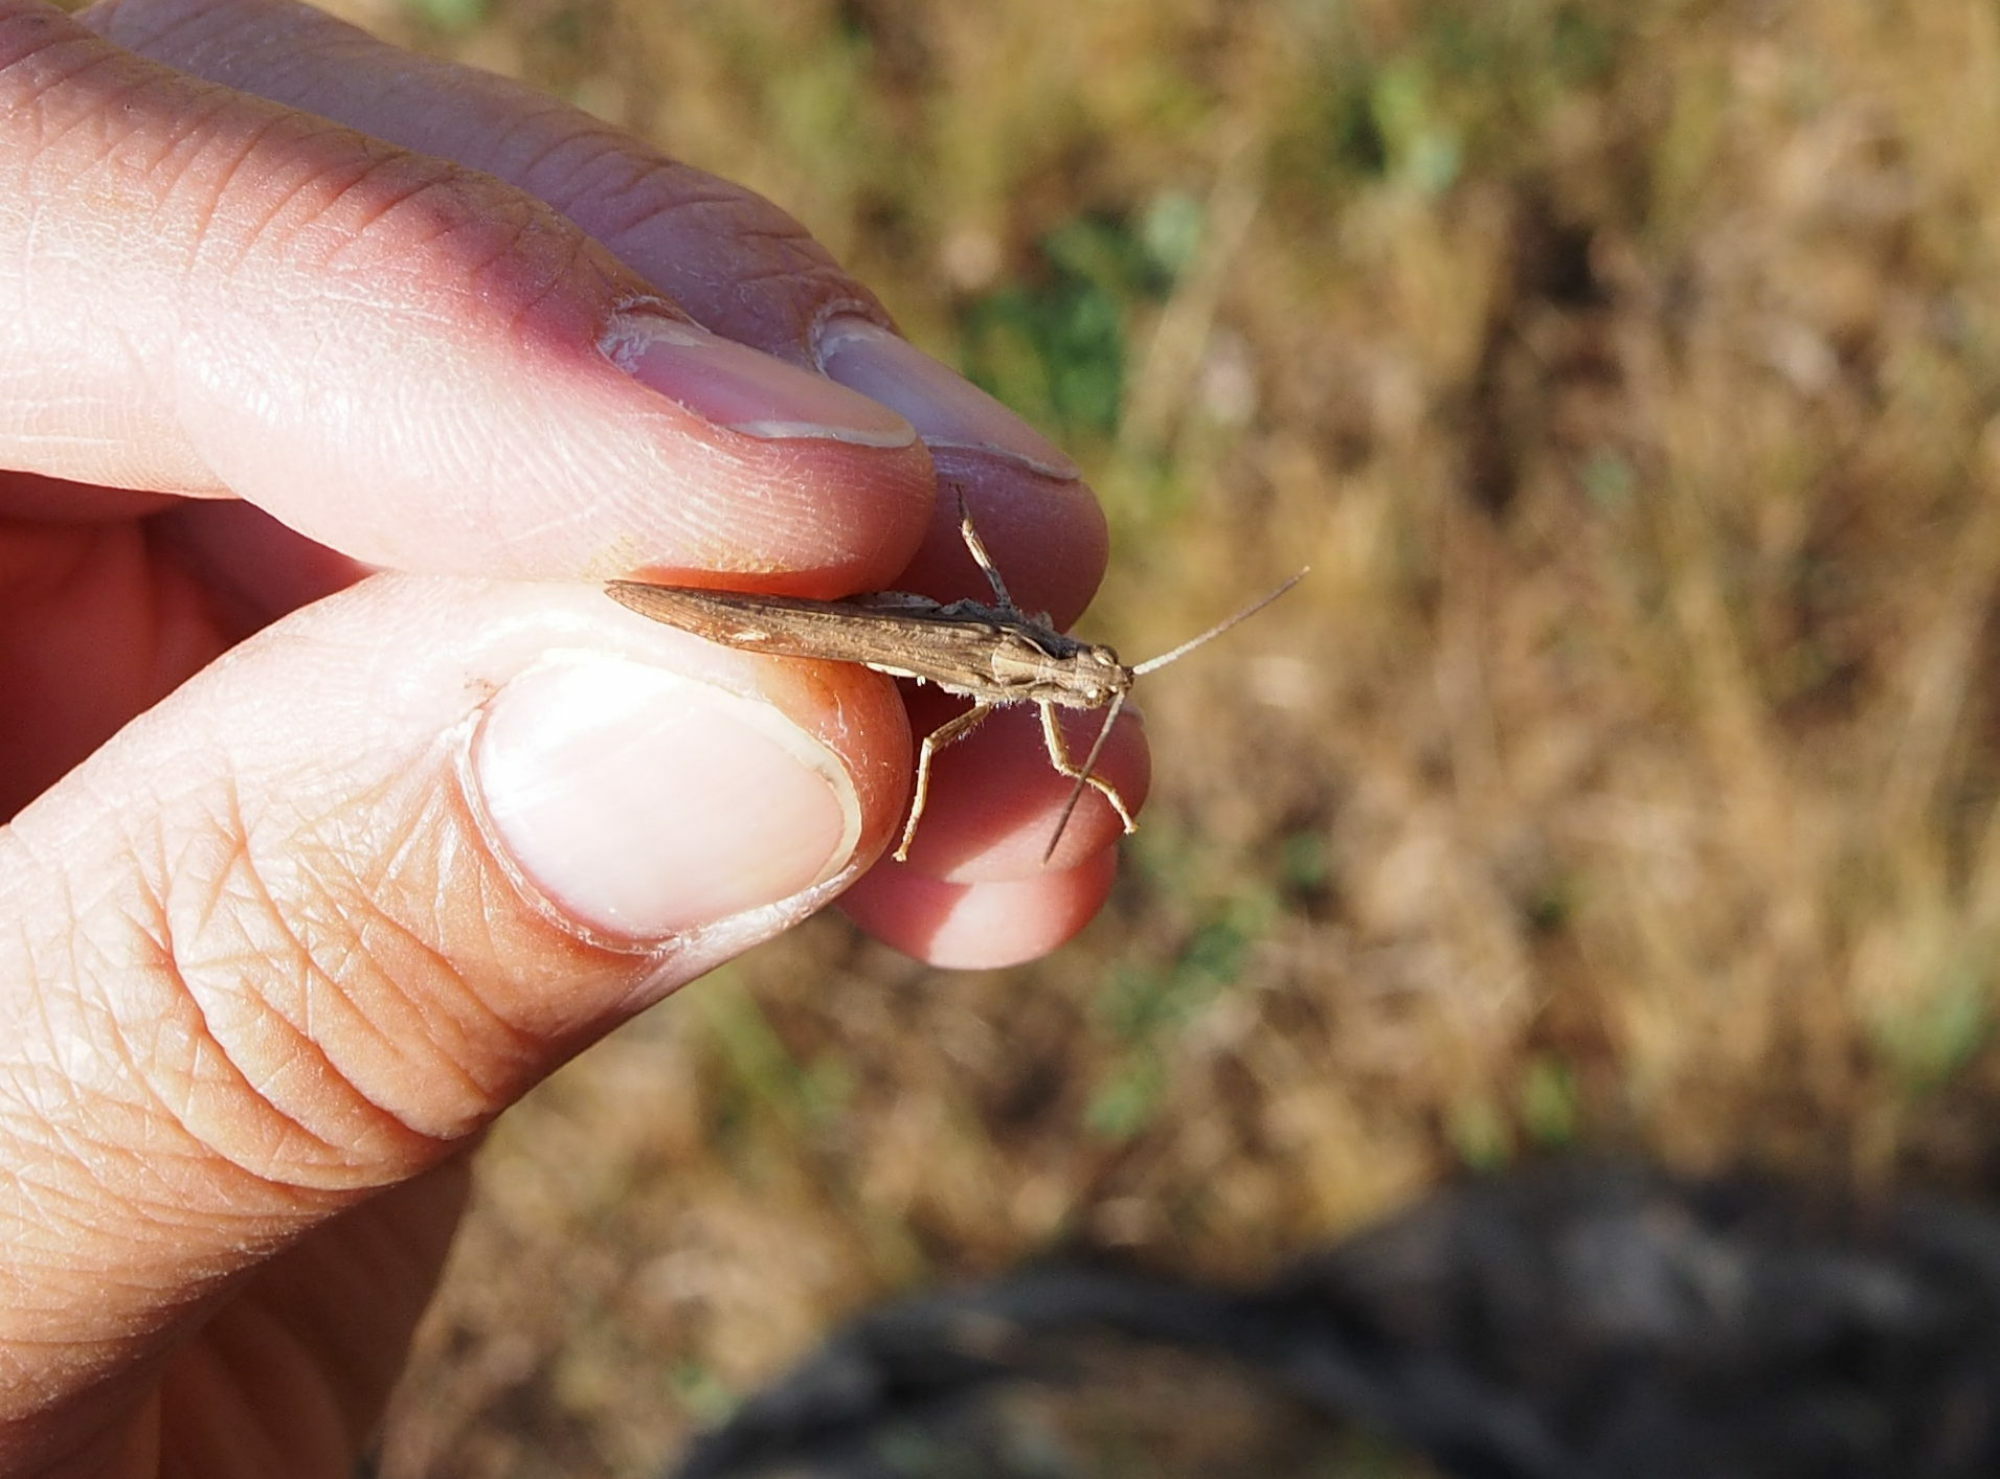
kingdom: Animalia
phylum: Arthropoda
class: Insecta
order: Orthoptera
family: Acrididae
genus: Chorthippus
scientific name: Chorthippus brunneus
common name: Field grasshopper
